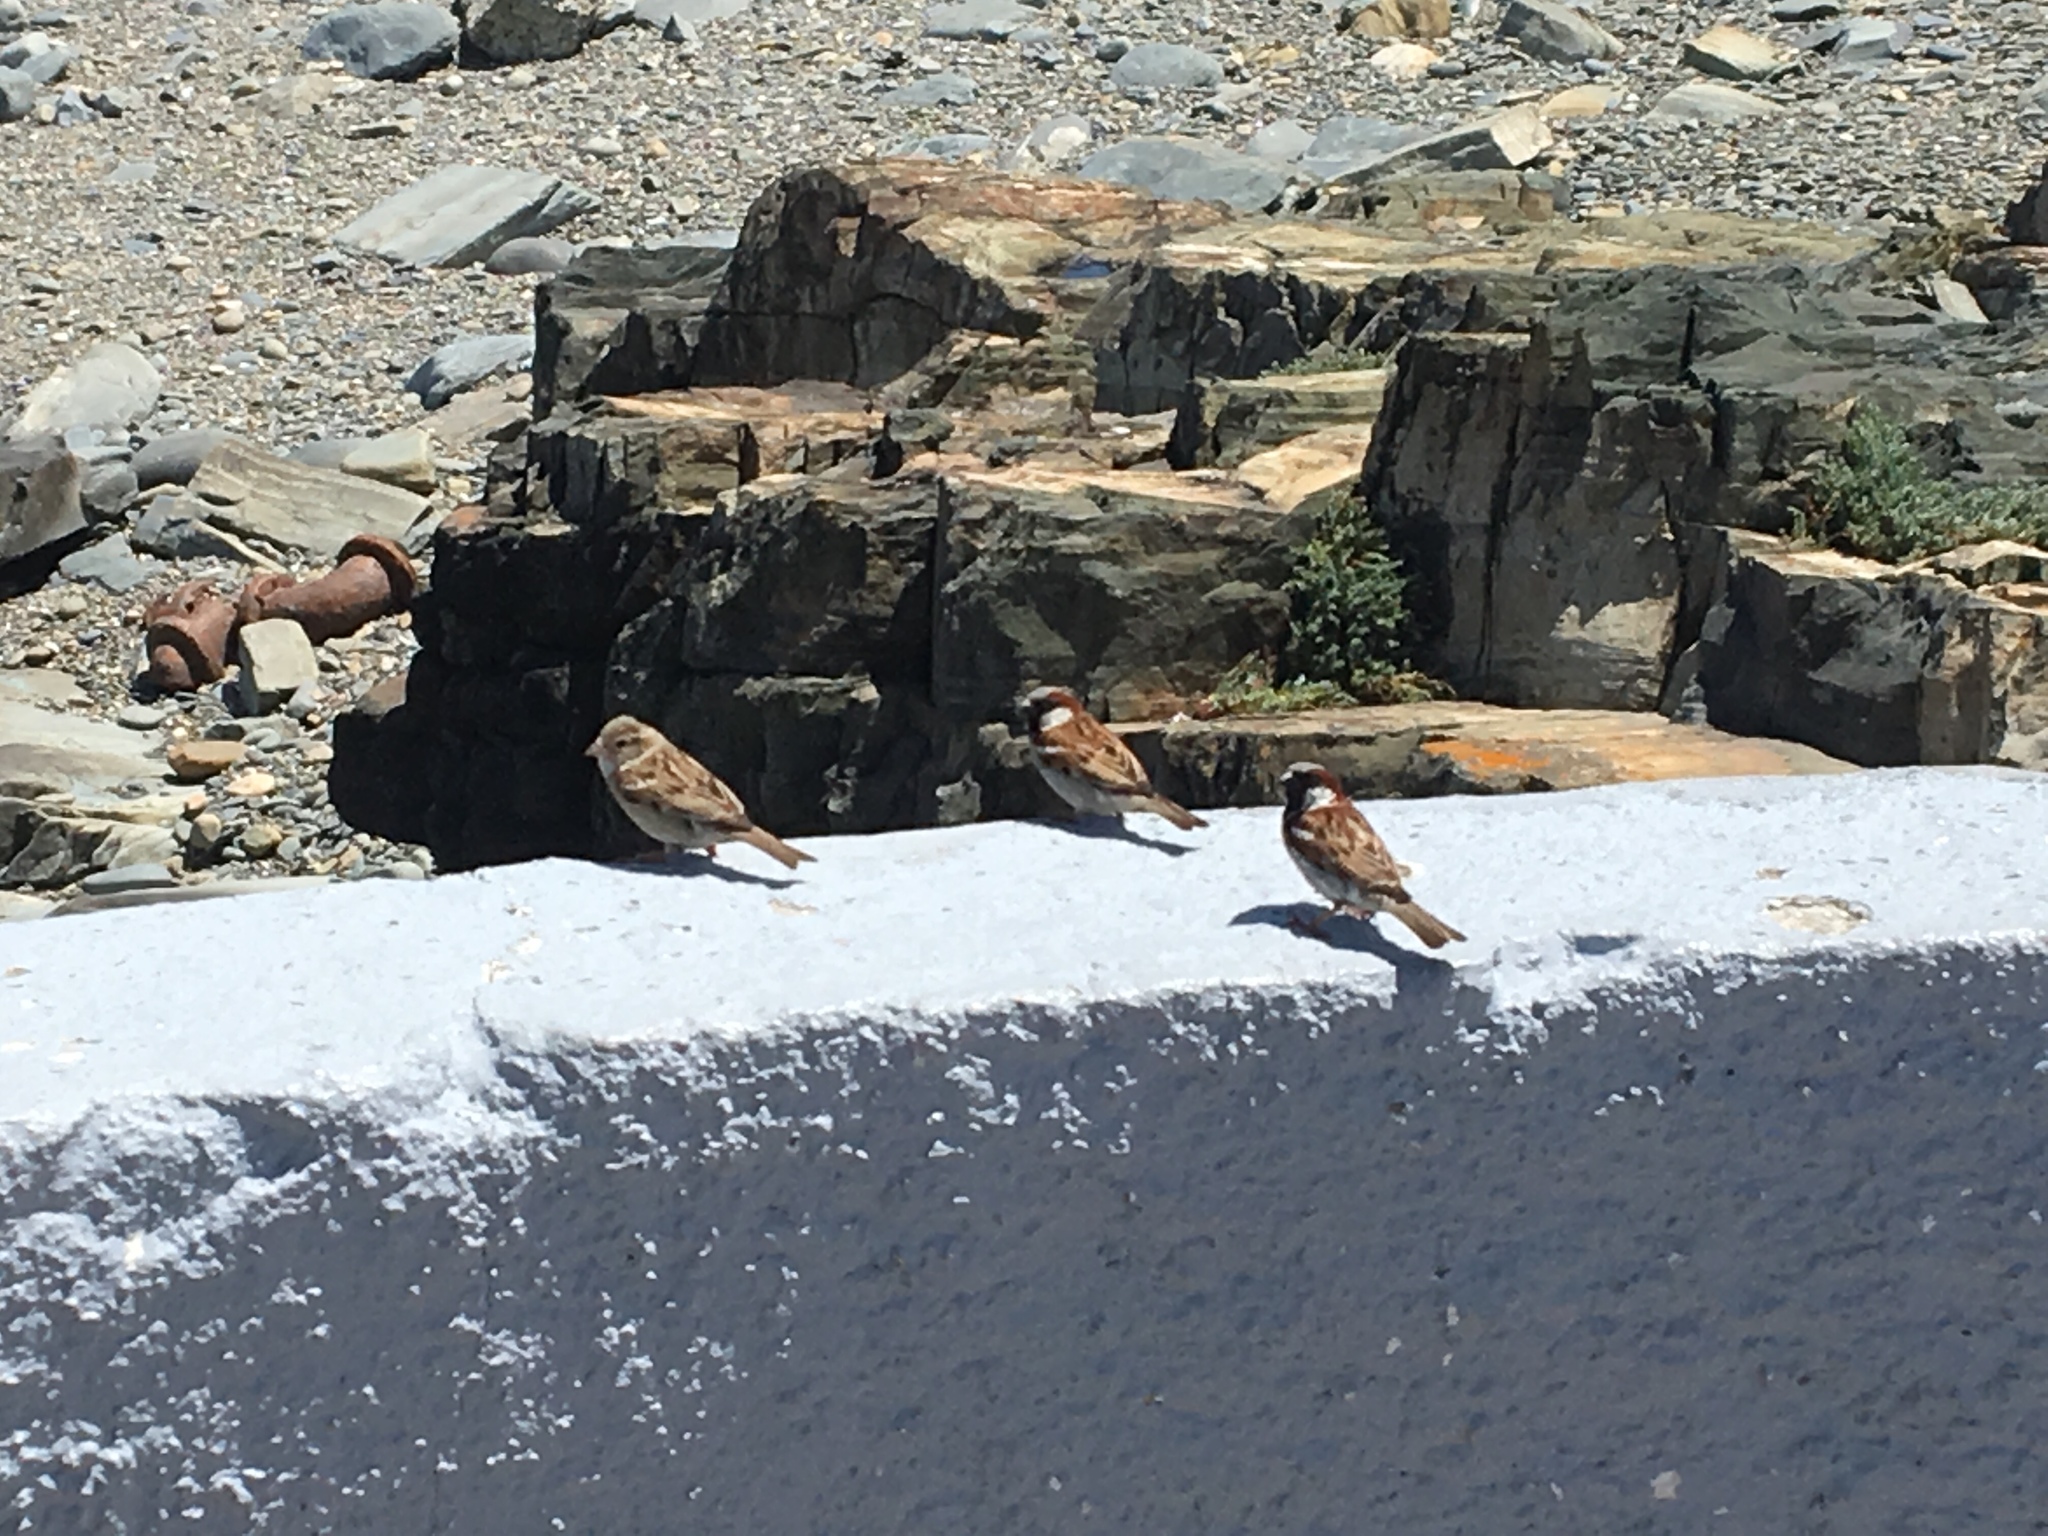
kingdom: Animalia
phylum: Chordata
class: Aves
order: Passeriformes
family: Passeridae
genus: Passer
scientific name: Passer domesticus
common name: House sparrow
